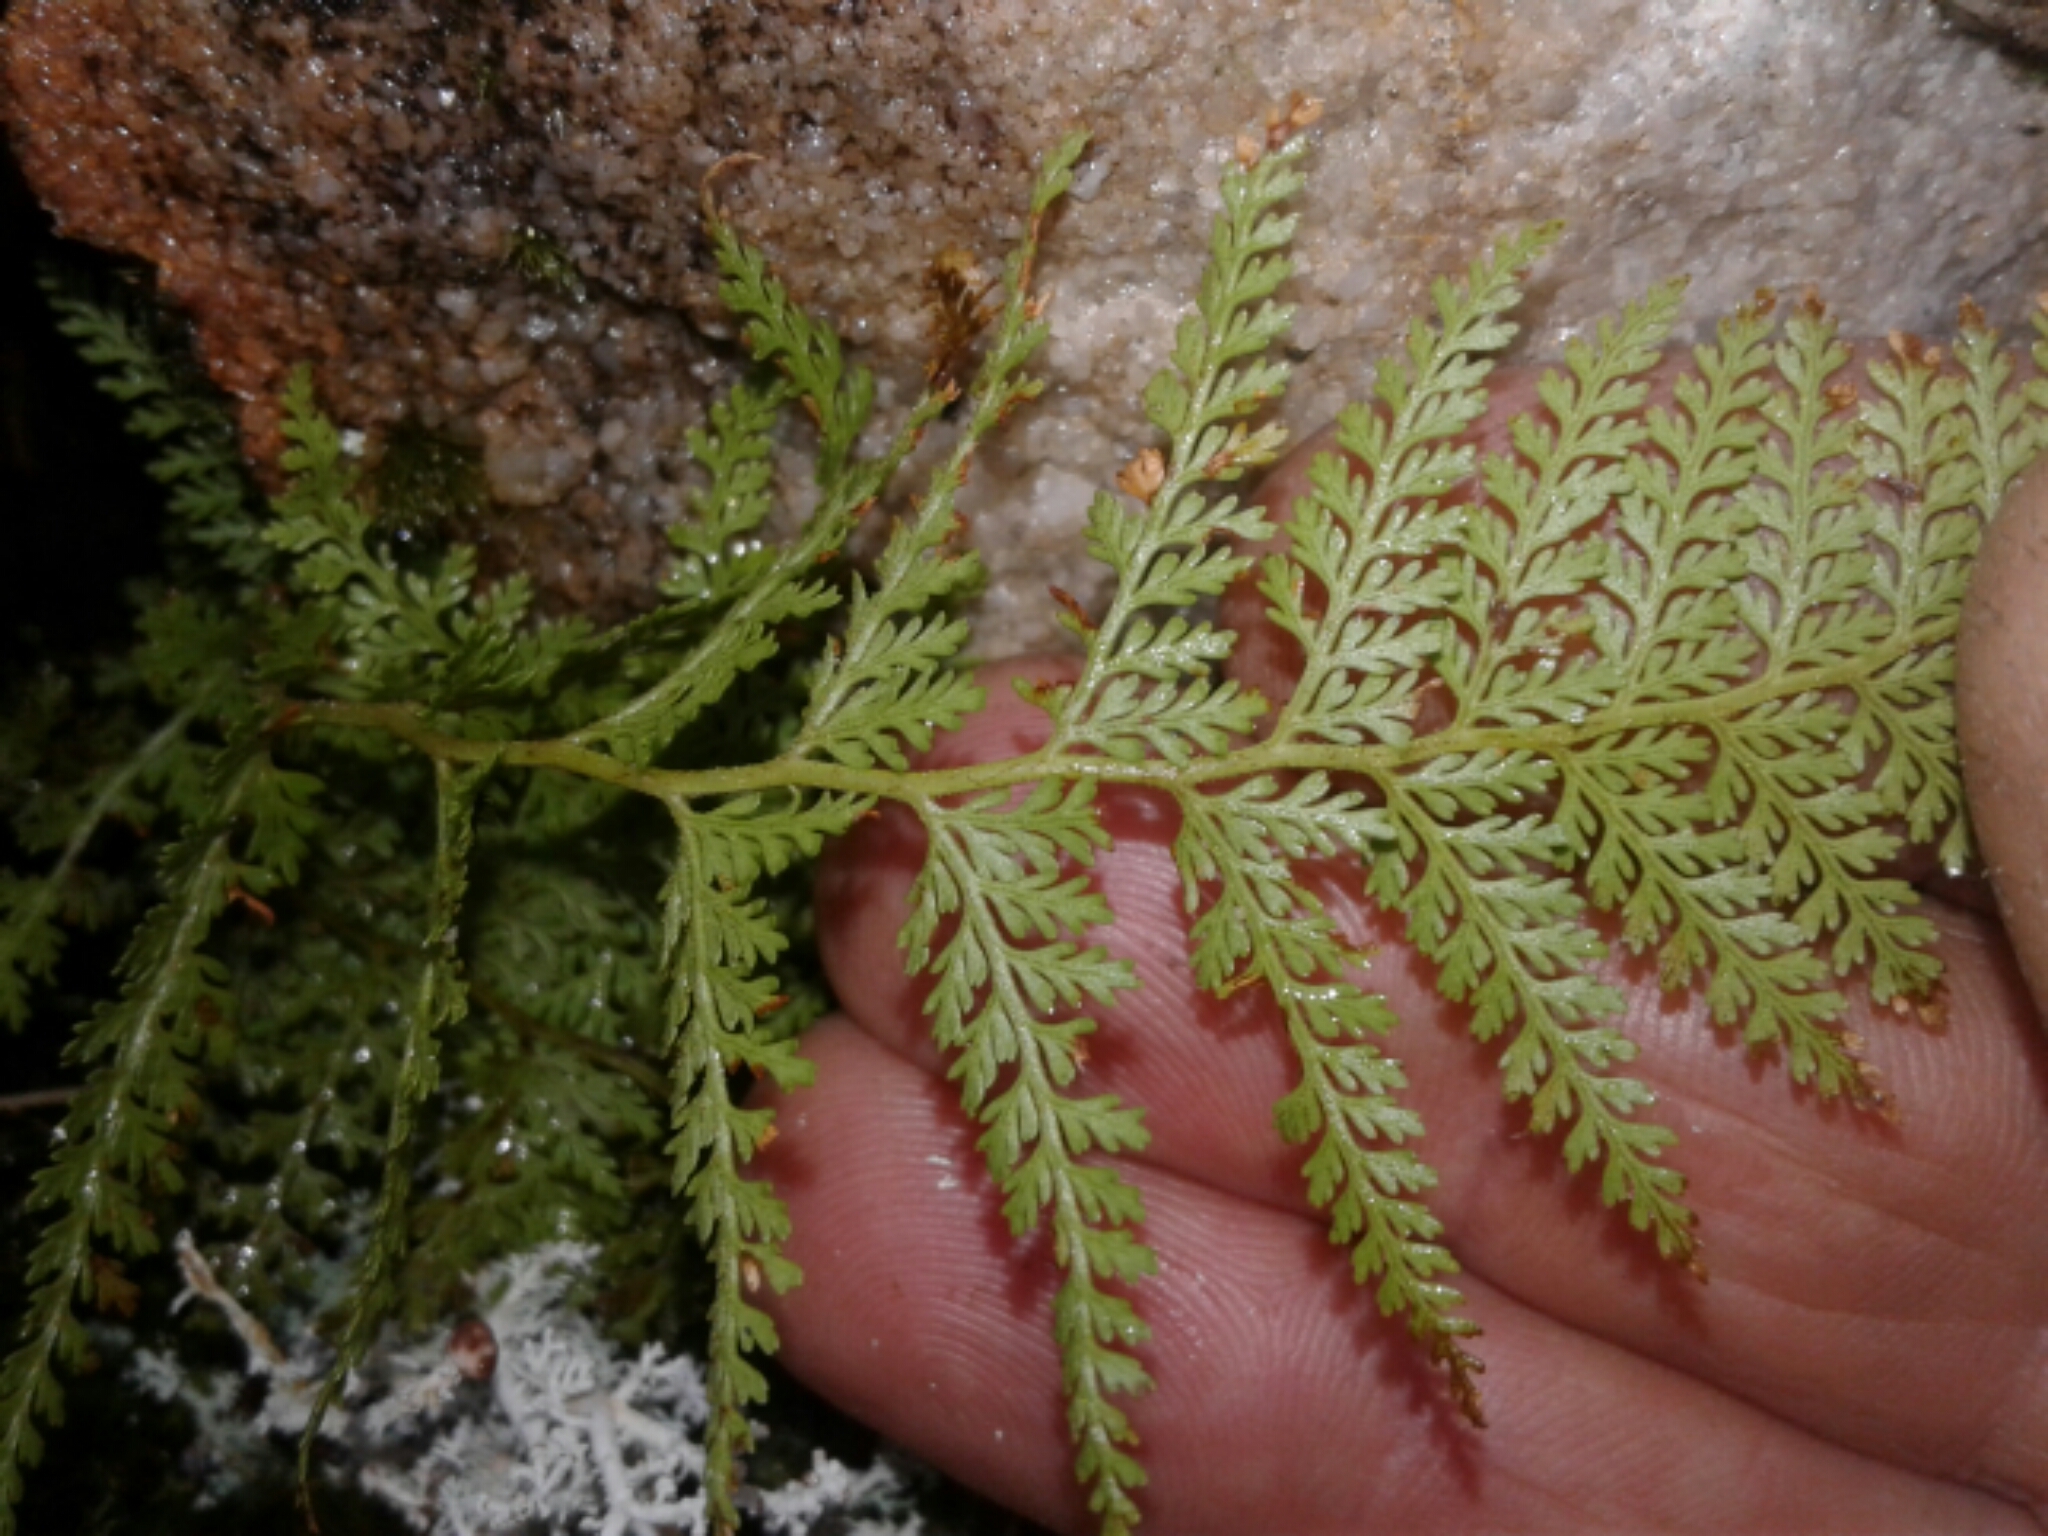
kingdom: Plantae
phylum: Tracheophyta
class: Polypodiopsida
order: Polypodiales
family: Dennstaedtiaceae
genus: Paesia
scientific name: Paesia scaberula
